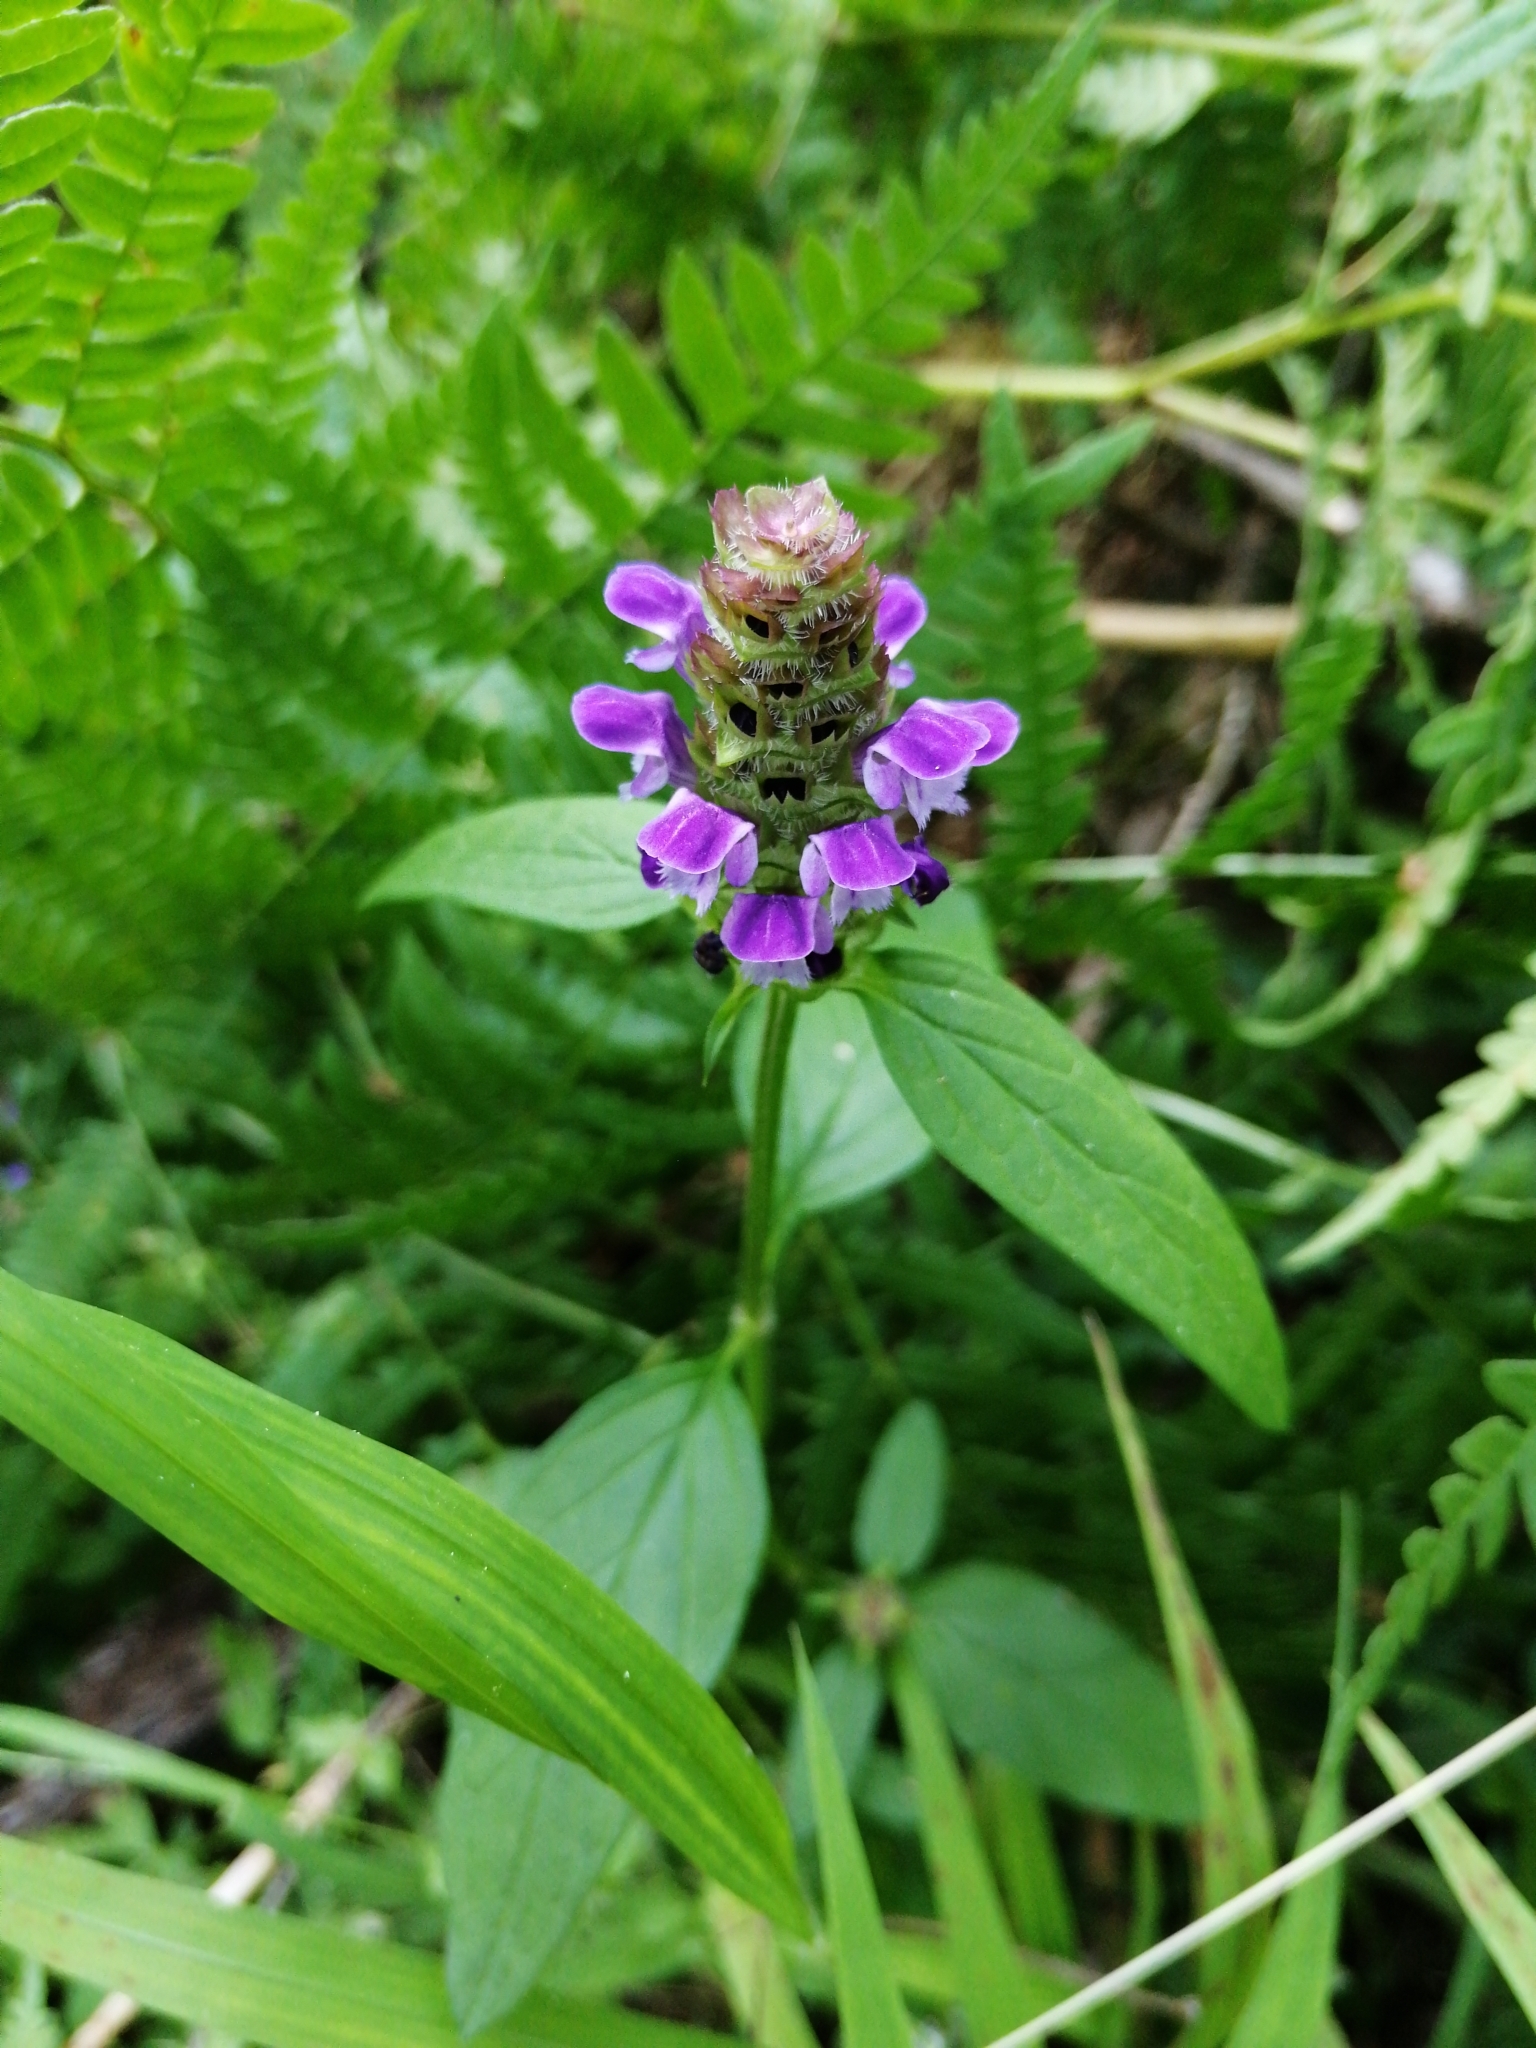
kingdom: Plantae
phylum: Tracheophyta
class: Magnoliopsida
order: Lamiales
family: Lamiaceae
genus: Prunella
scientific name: Prunella vulgaris
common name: Heal-all
